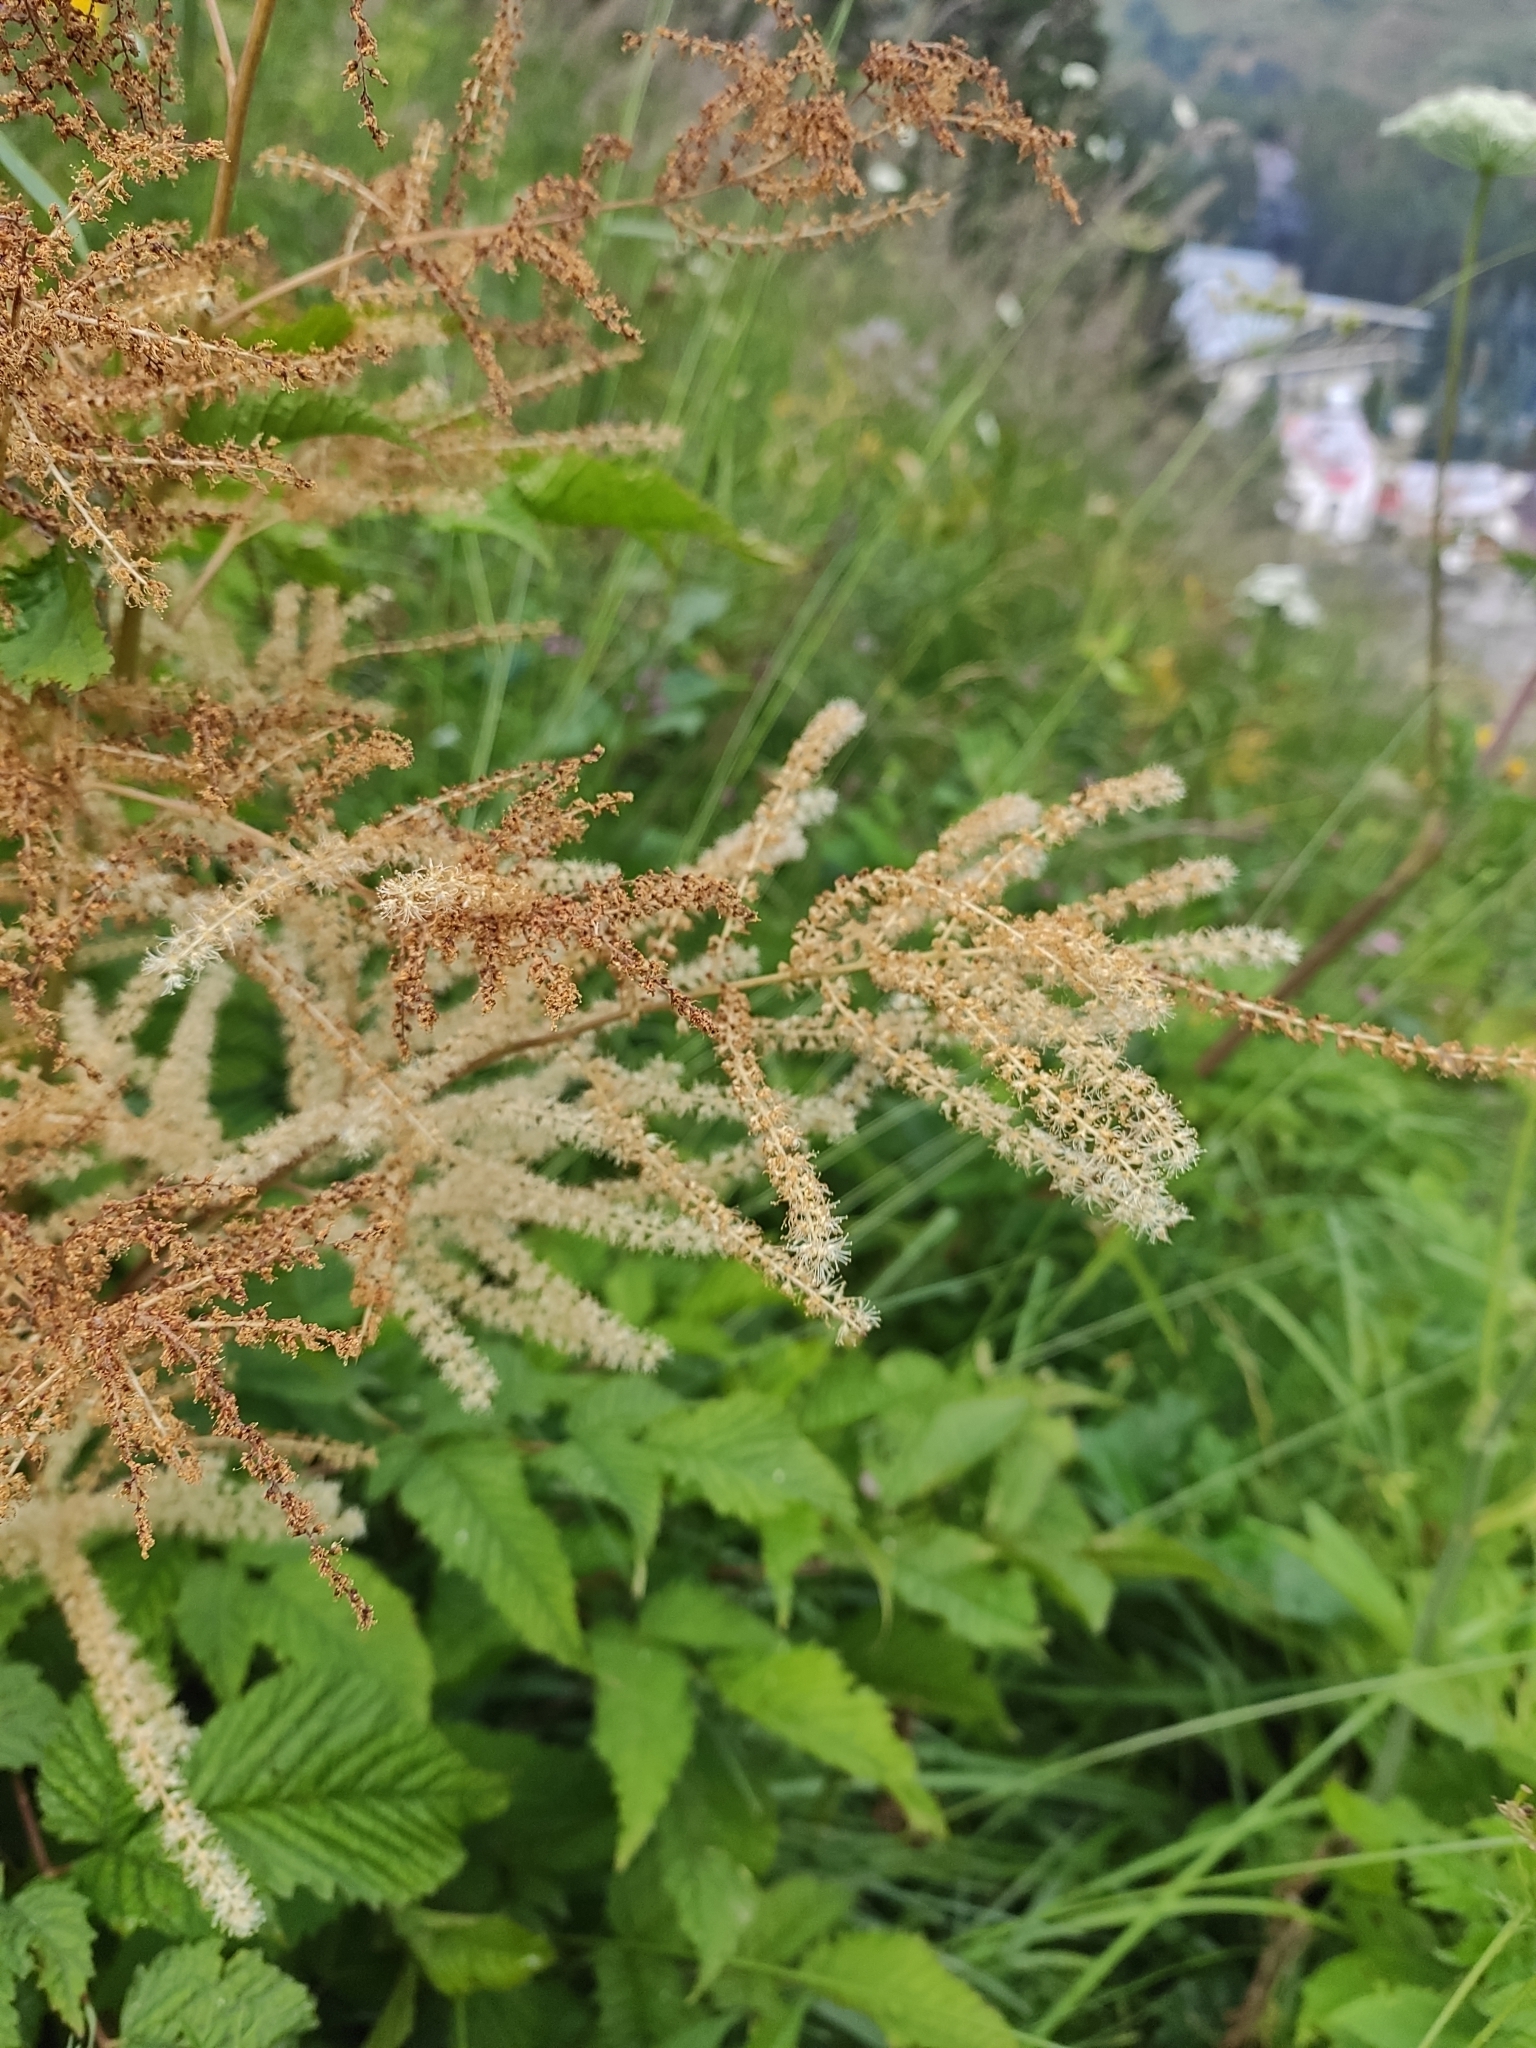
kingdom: Plantae
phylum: Tracheophyta
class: Magnoliopsida
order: Rosales
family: Rosaceae
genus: Aruncus
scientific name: Aruncus dioicus
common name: Buck's-beard
